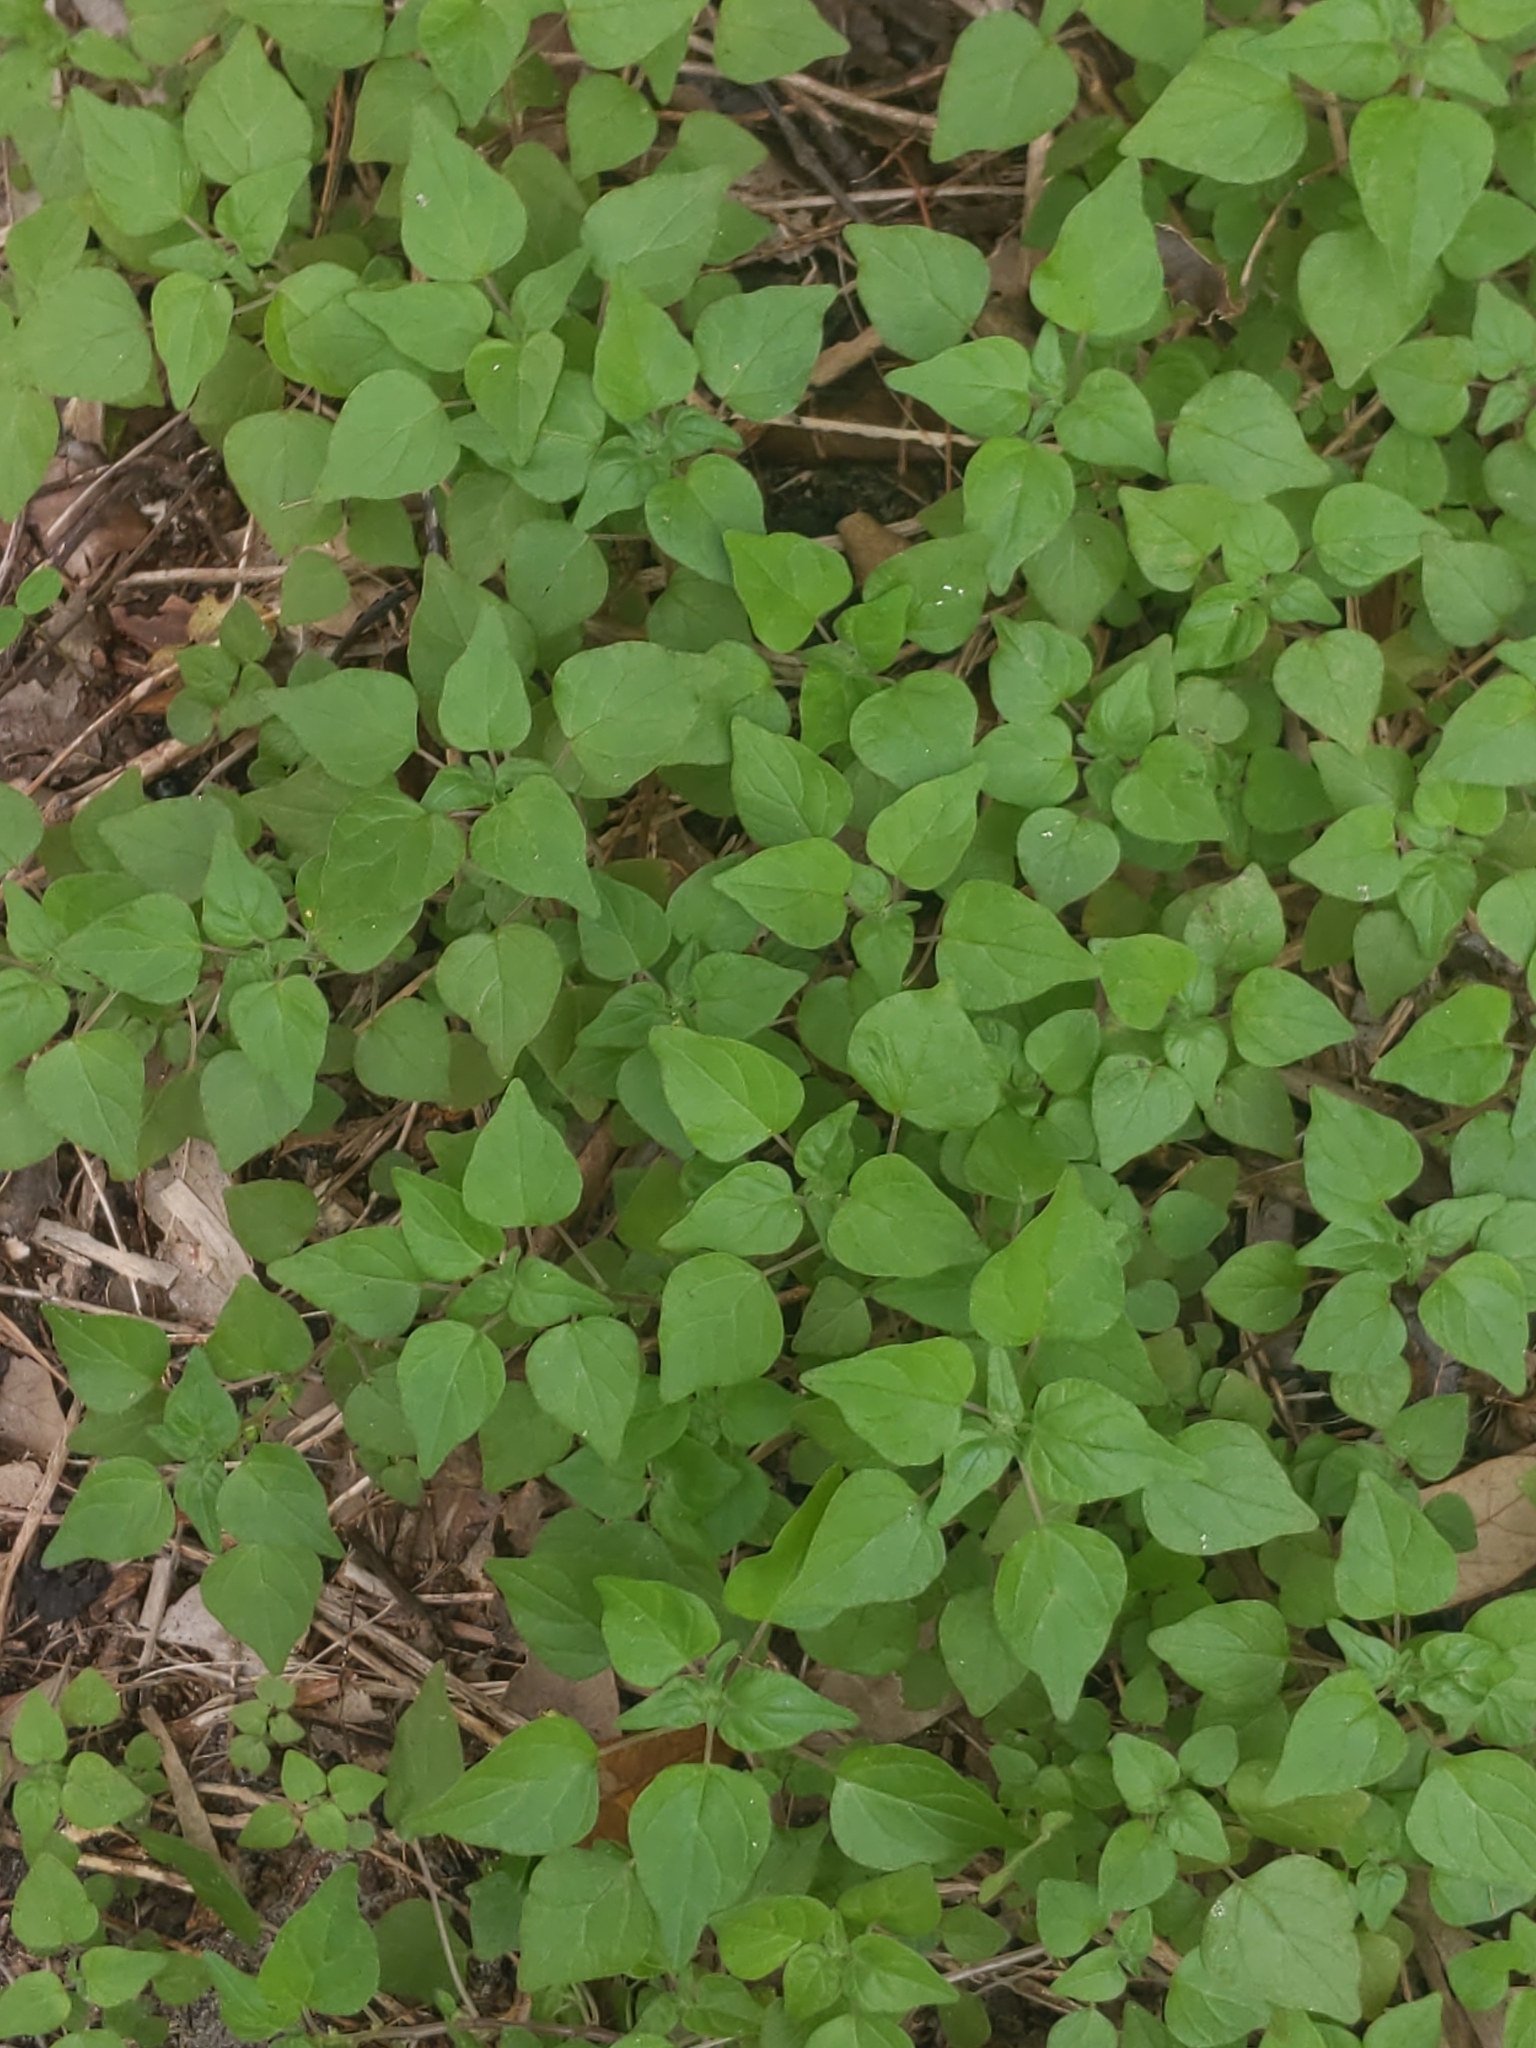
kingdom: Plantae
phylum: Tracheophyta
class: Magnoliopsida
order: Rosales
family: Urticaceae
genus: Parietaria
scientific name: Parietaria floridana
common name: Florida pellitory
